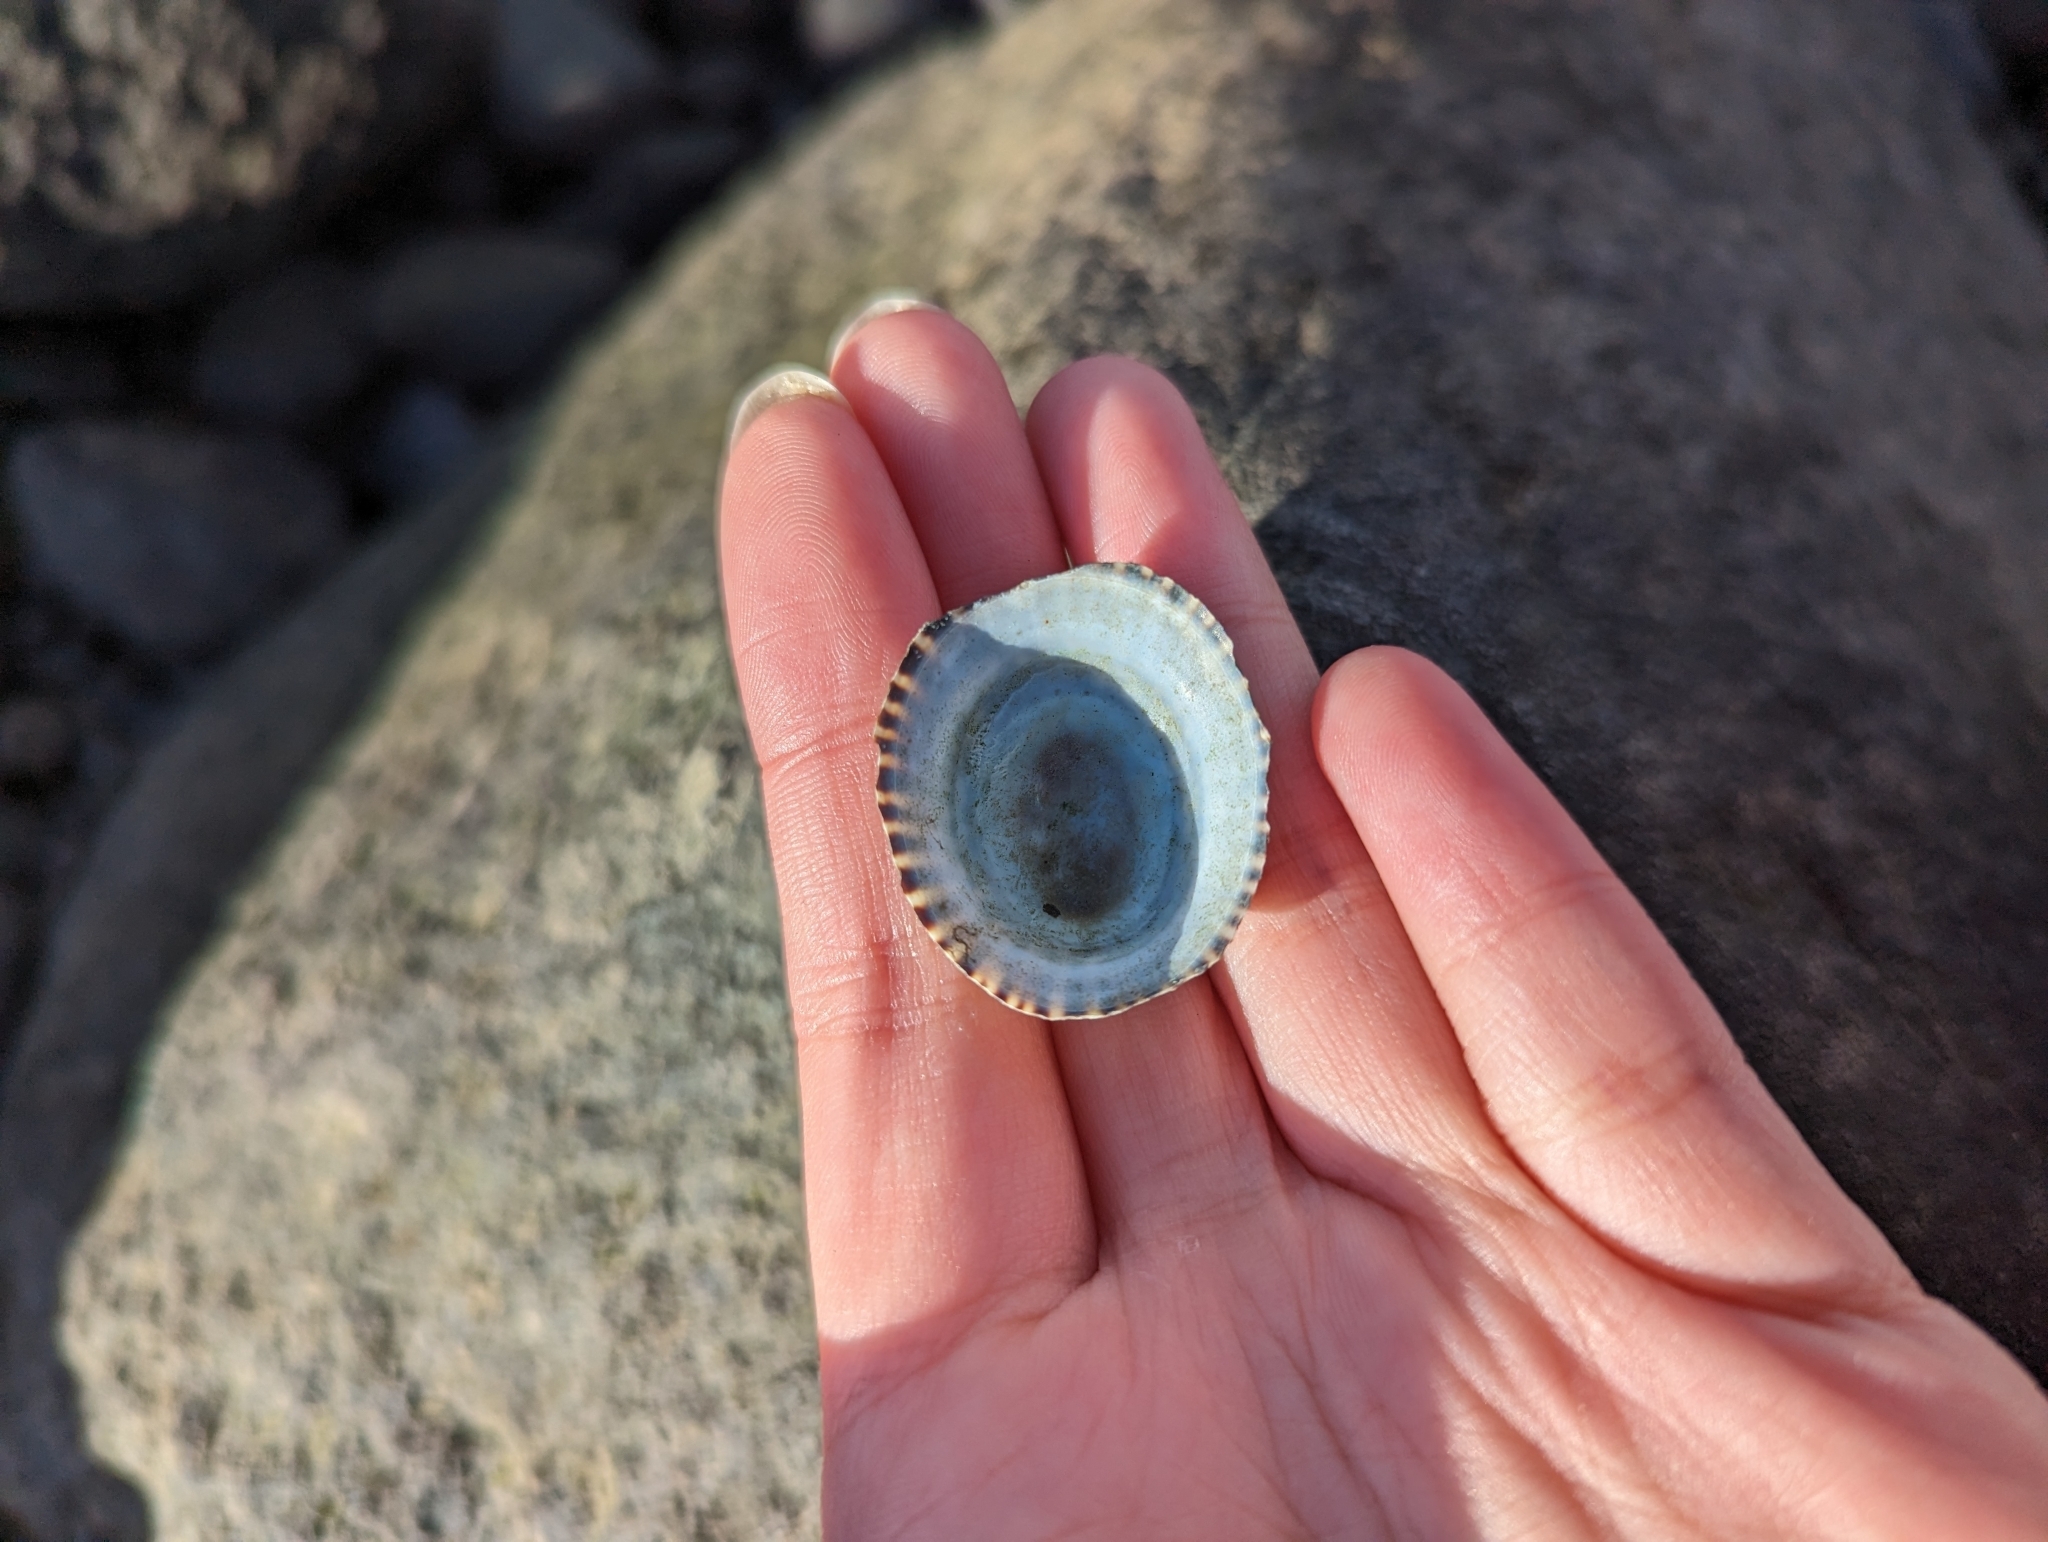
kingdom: Animalia
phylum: Mollusca
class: Gastropoda
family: Lottiidae
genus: Lottia
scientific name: Lottia persona
